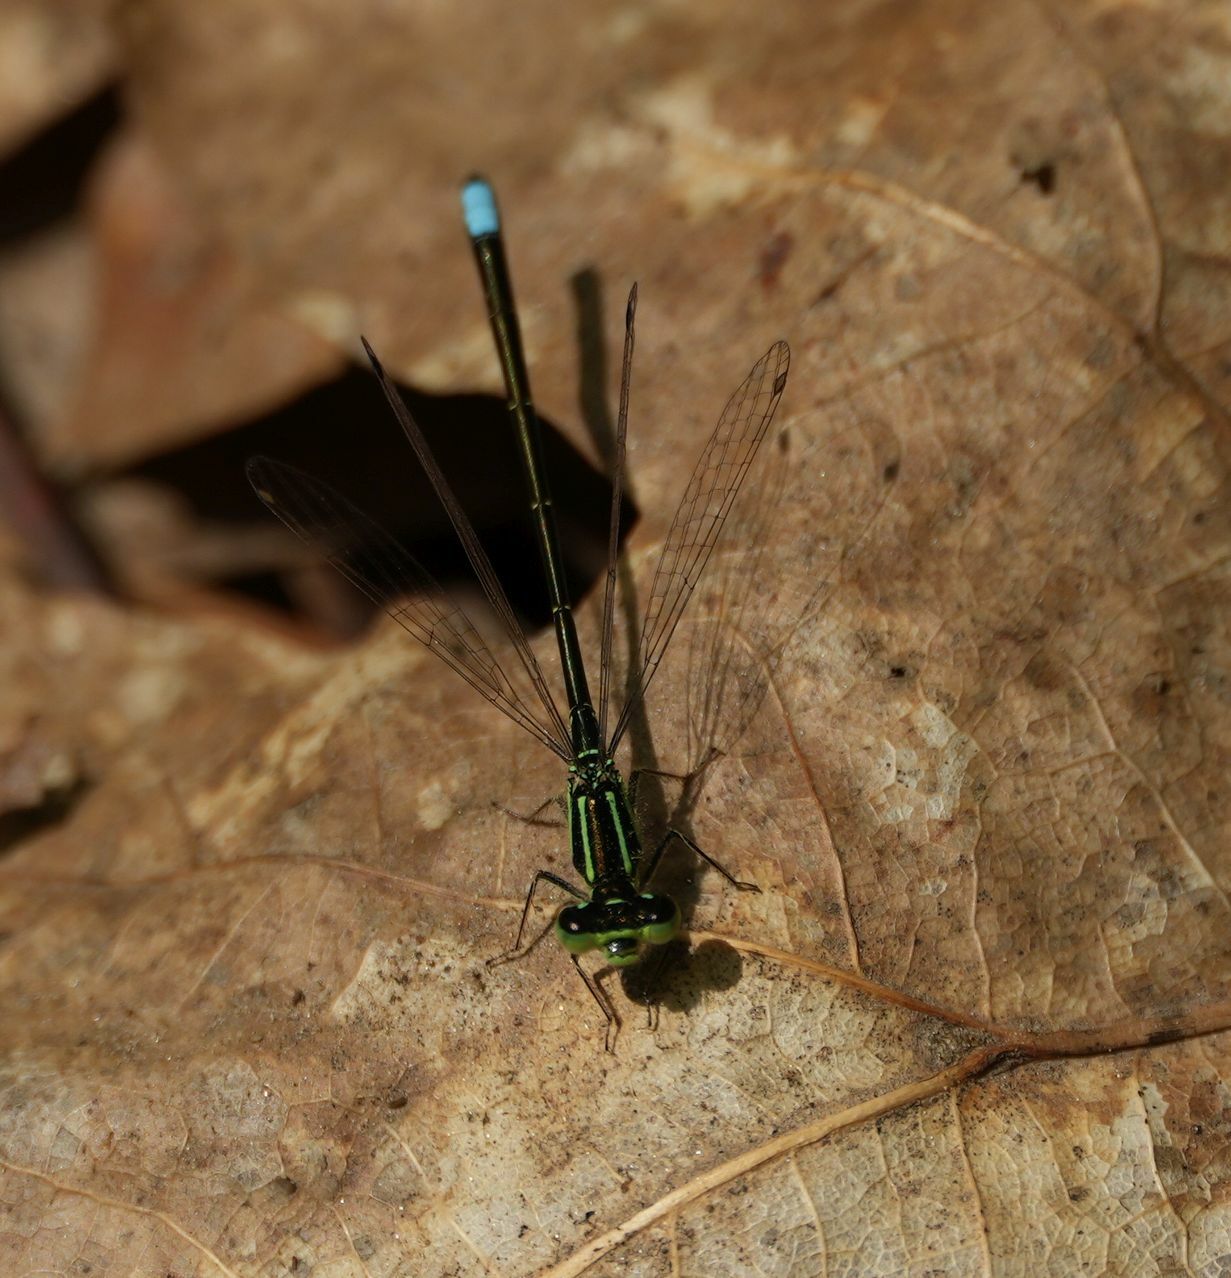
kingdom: Animalia
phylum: Arthropoda
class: Insecta
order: Odonata
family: Coenagrionidae
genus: Ischnura
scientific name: Ischnura verticalis
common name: Eastern forktail
